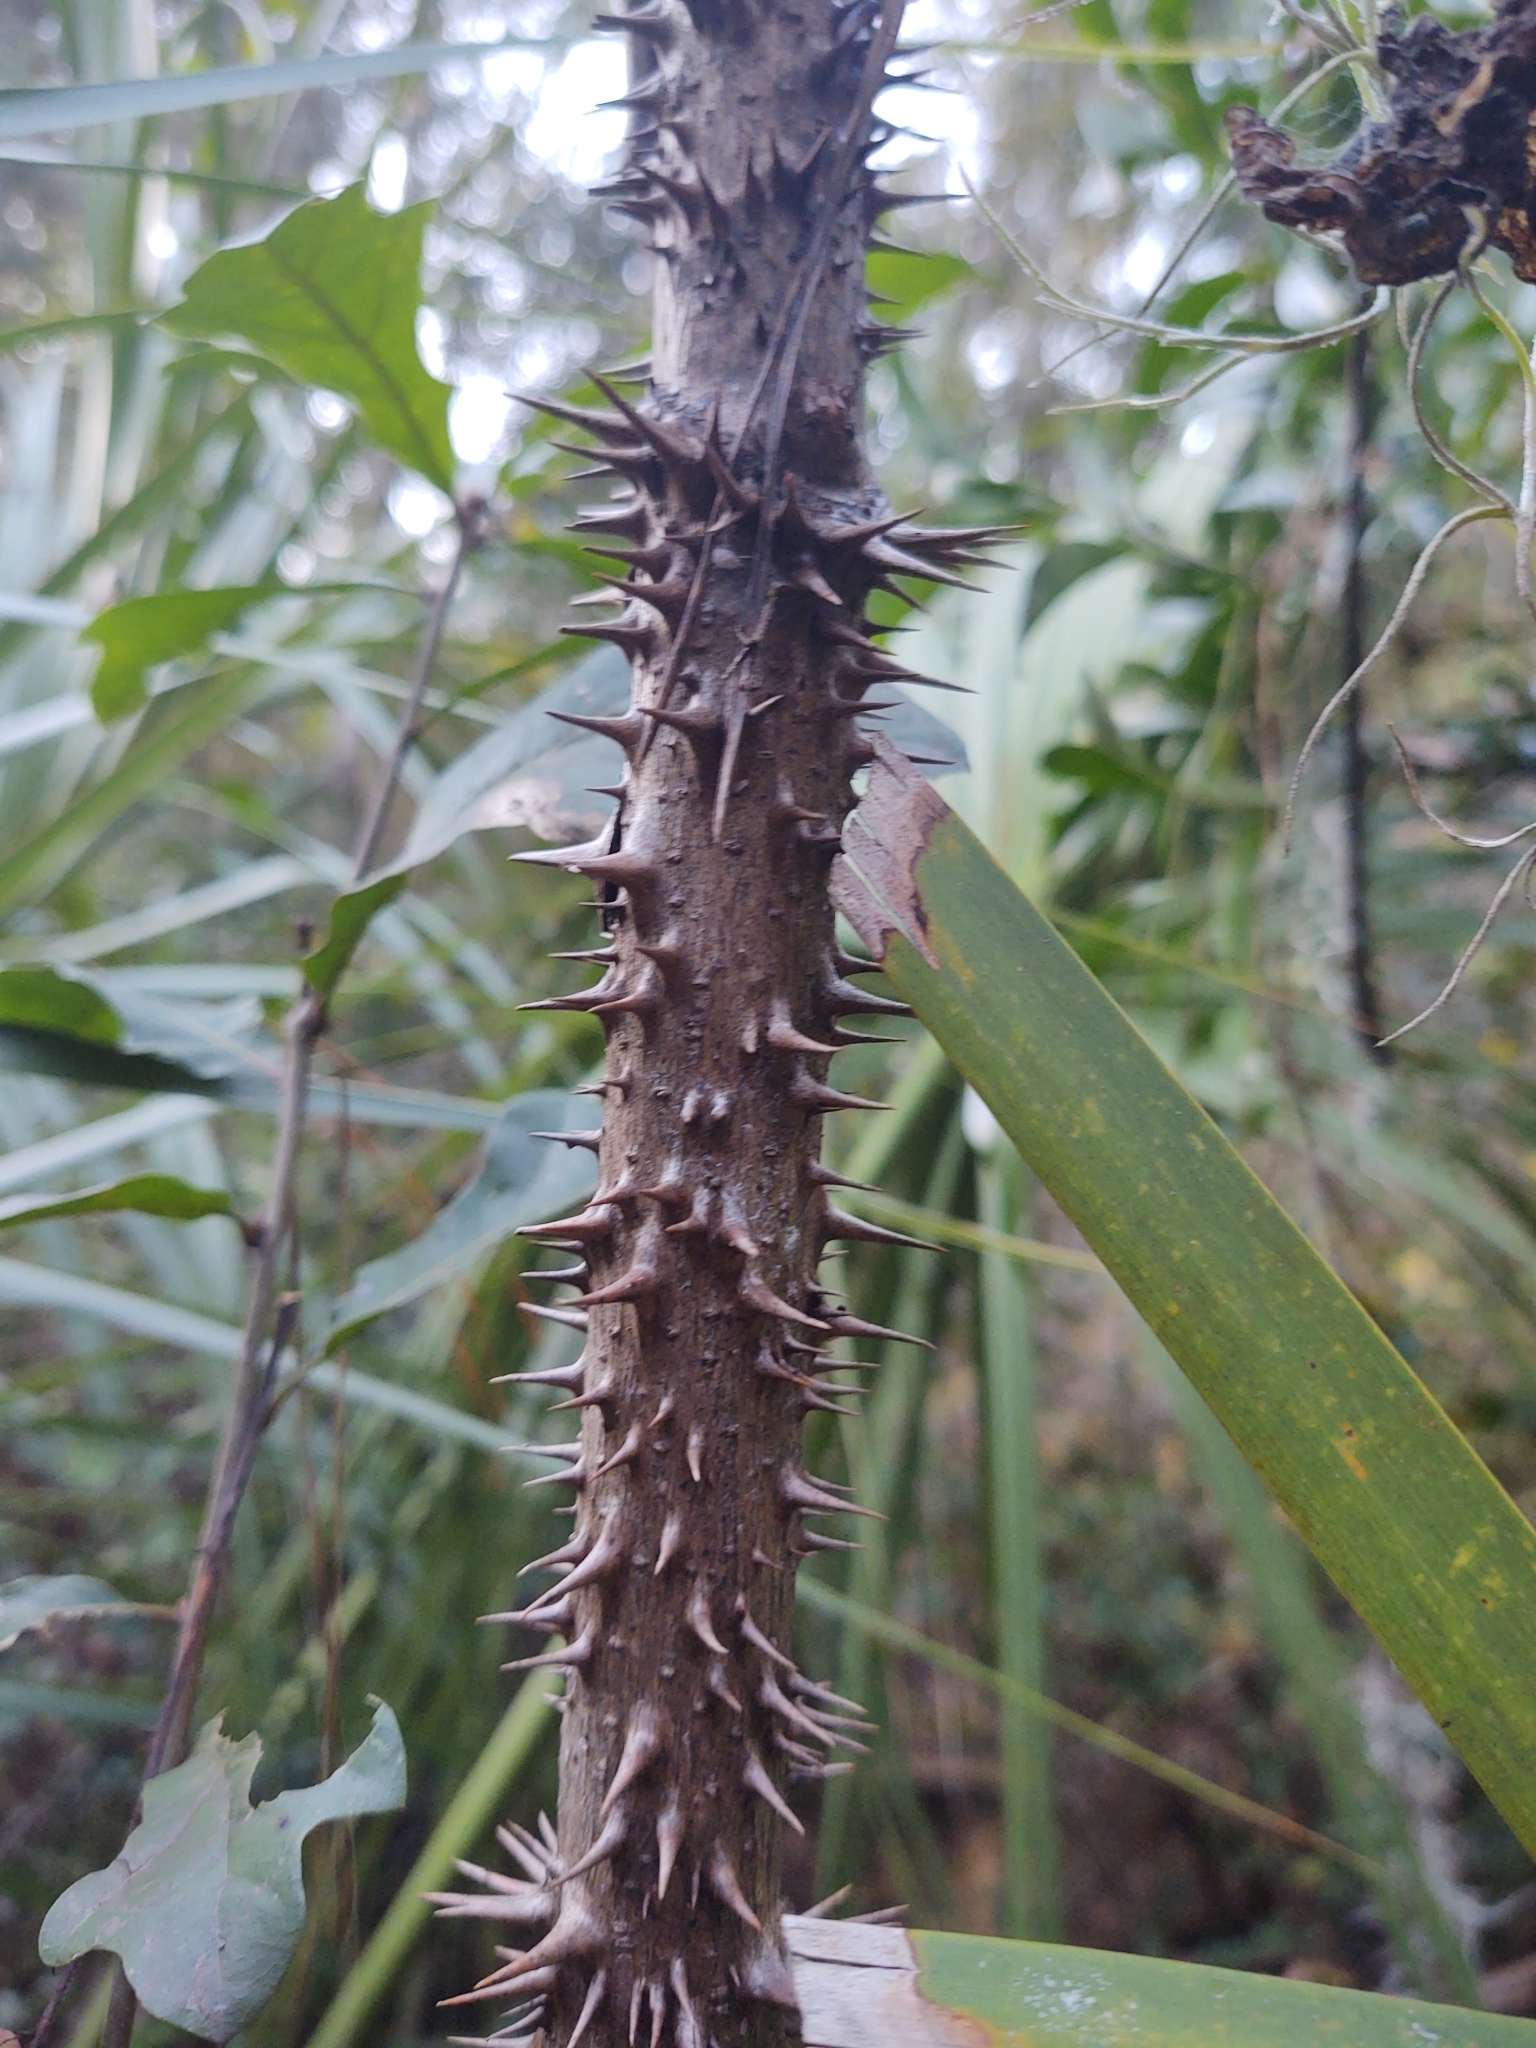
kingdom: Plantae
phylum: Tracheophyta
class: Magnoliopsida
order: Apiales
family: Araliaceae
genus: Aralia
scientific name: Aralia spinosa
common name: Hercules'-club
